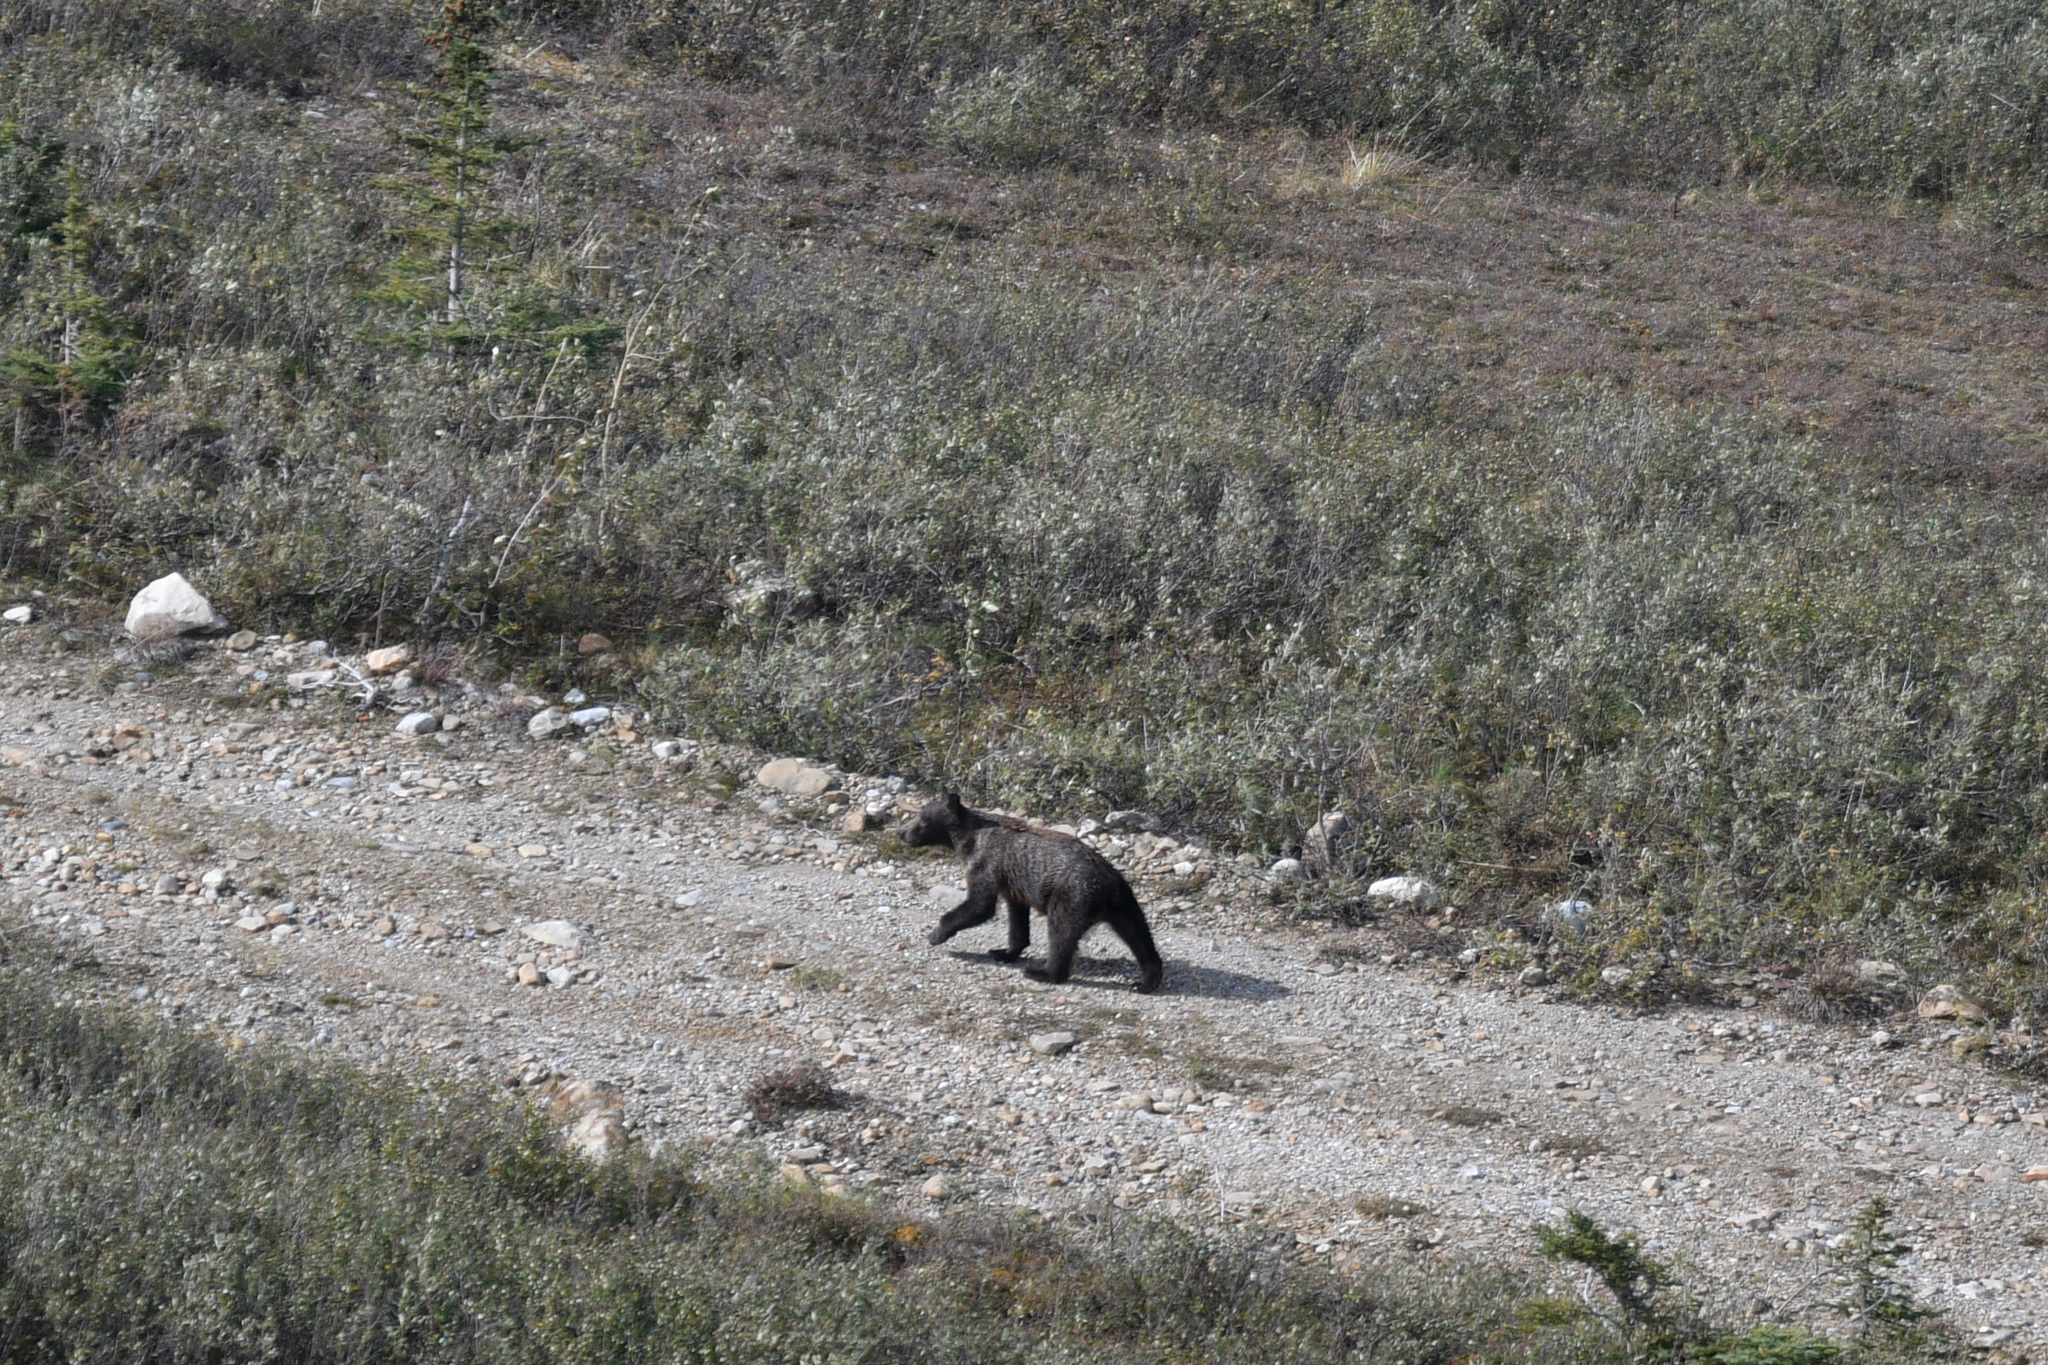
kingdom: Animalia
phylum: Chordata
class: Mammalia
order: Carnivora
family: Ursidae
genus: Ursus
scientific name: Ursus arctos
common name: Brown bear
